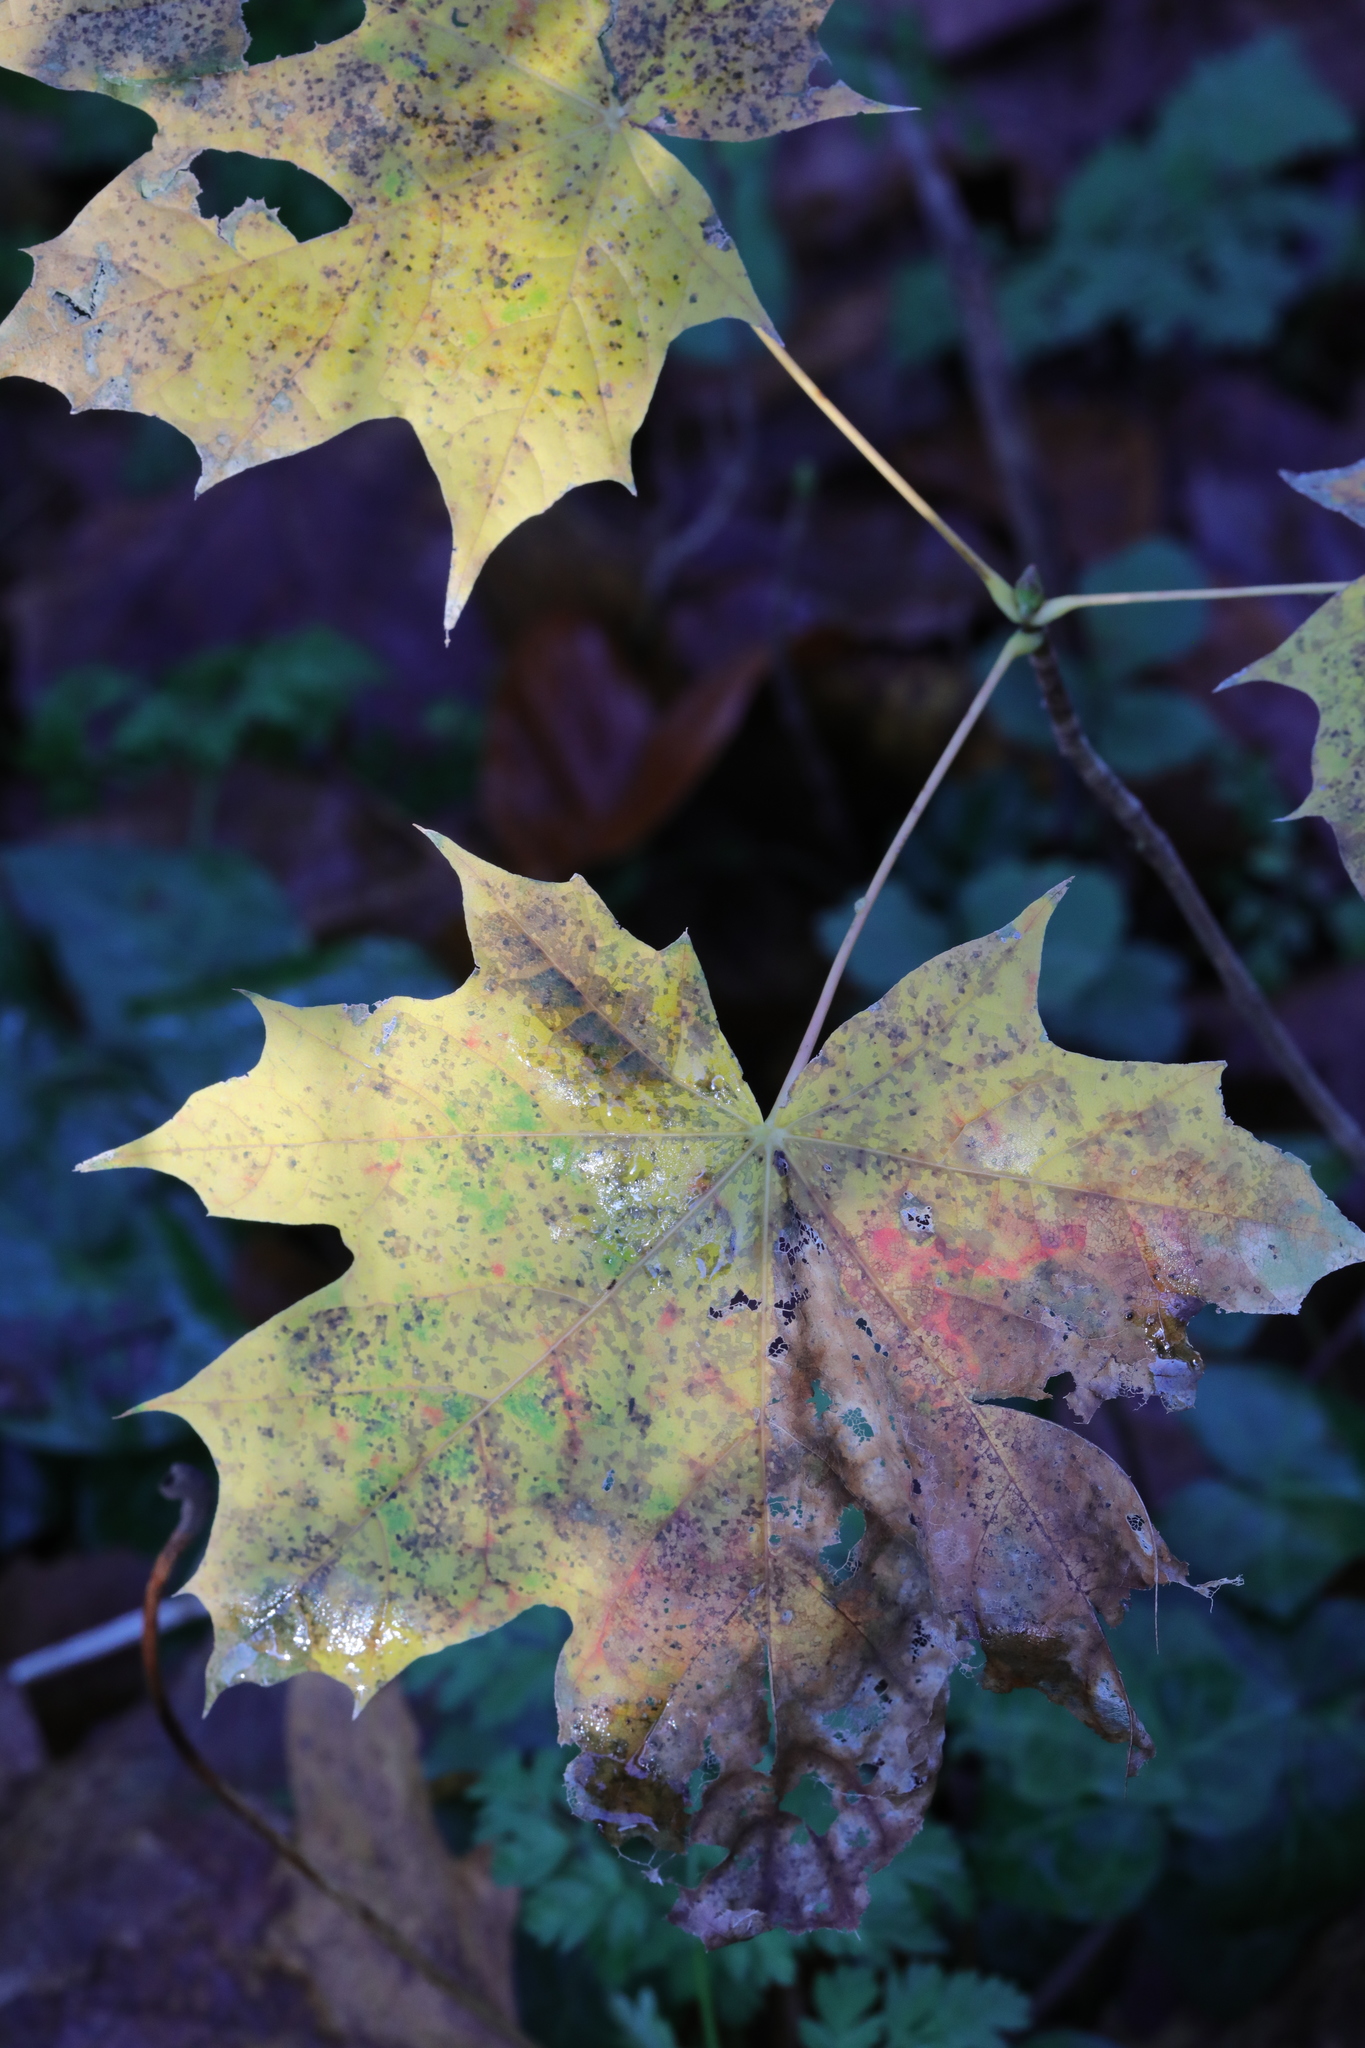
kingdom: Plantae
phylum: Tracheophyta
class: Magnoliopsida
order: Sapindales
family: Sapindaceae
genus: Acer
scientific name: Acer platanoides
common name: Norway maple
